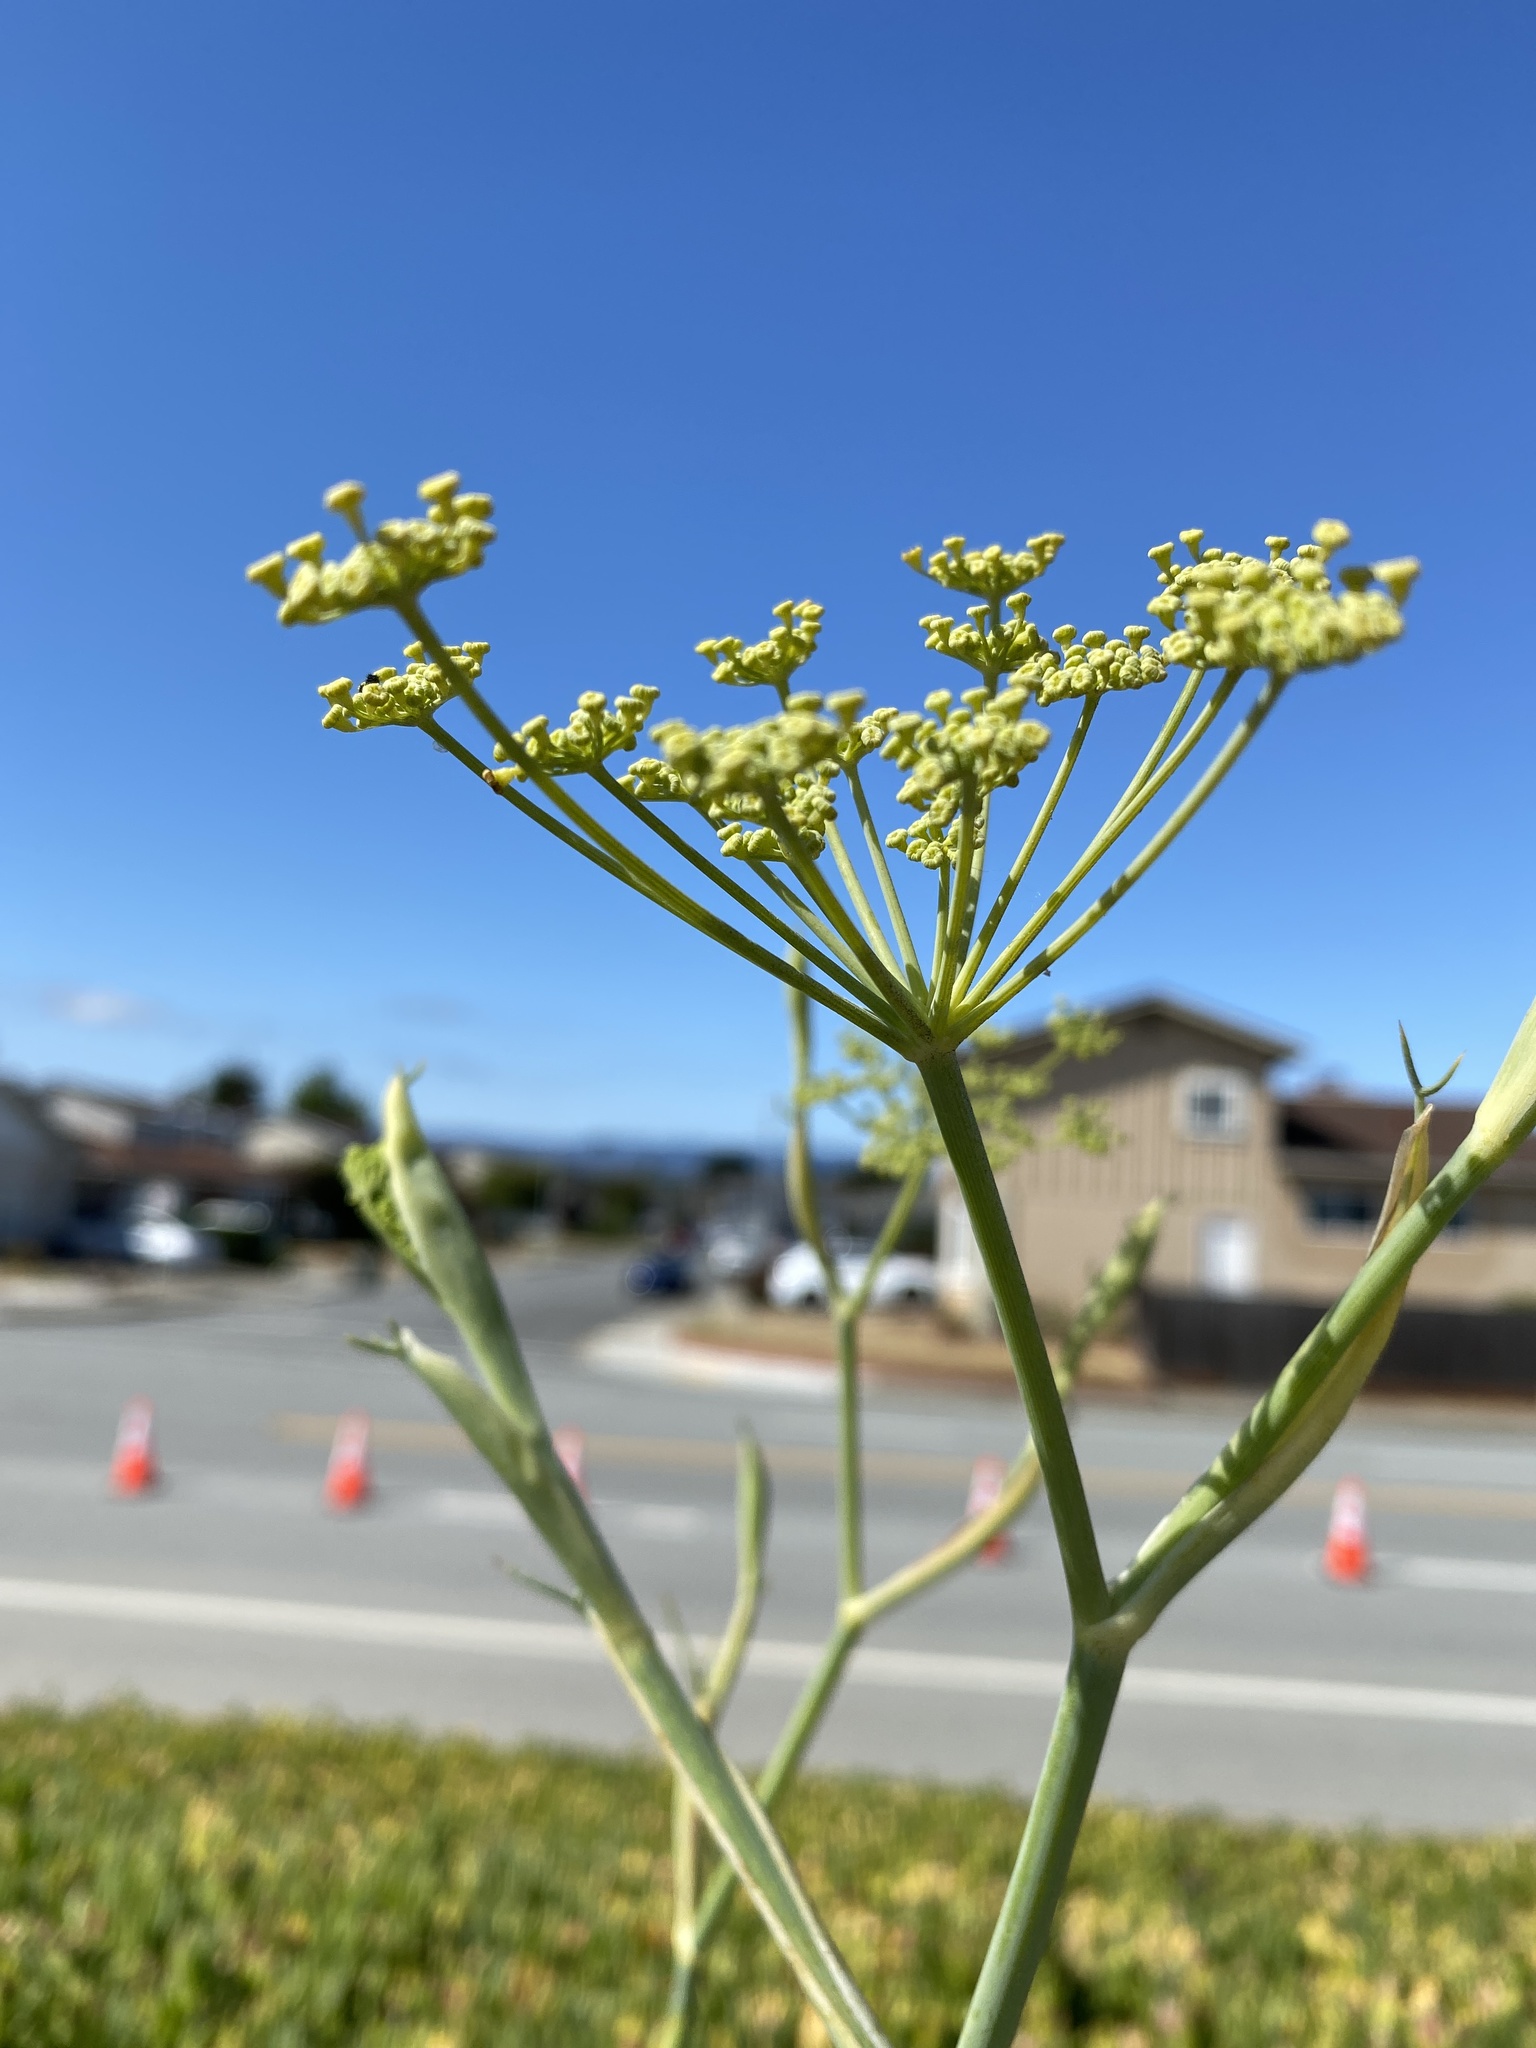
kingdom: Plantae
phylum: Tracheophyta
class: Magnoliopsida
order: Apiales
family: Apiaceae
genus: Foeniculum
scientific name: Foeniculum vulgare
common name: Fennel
